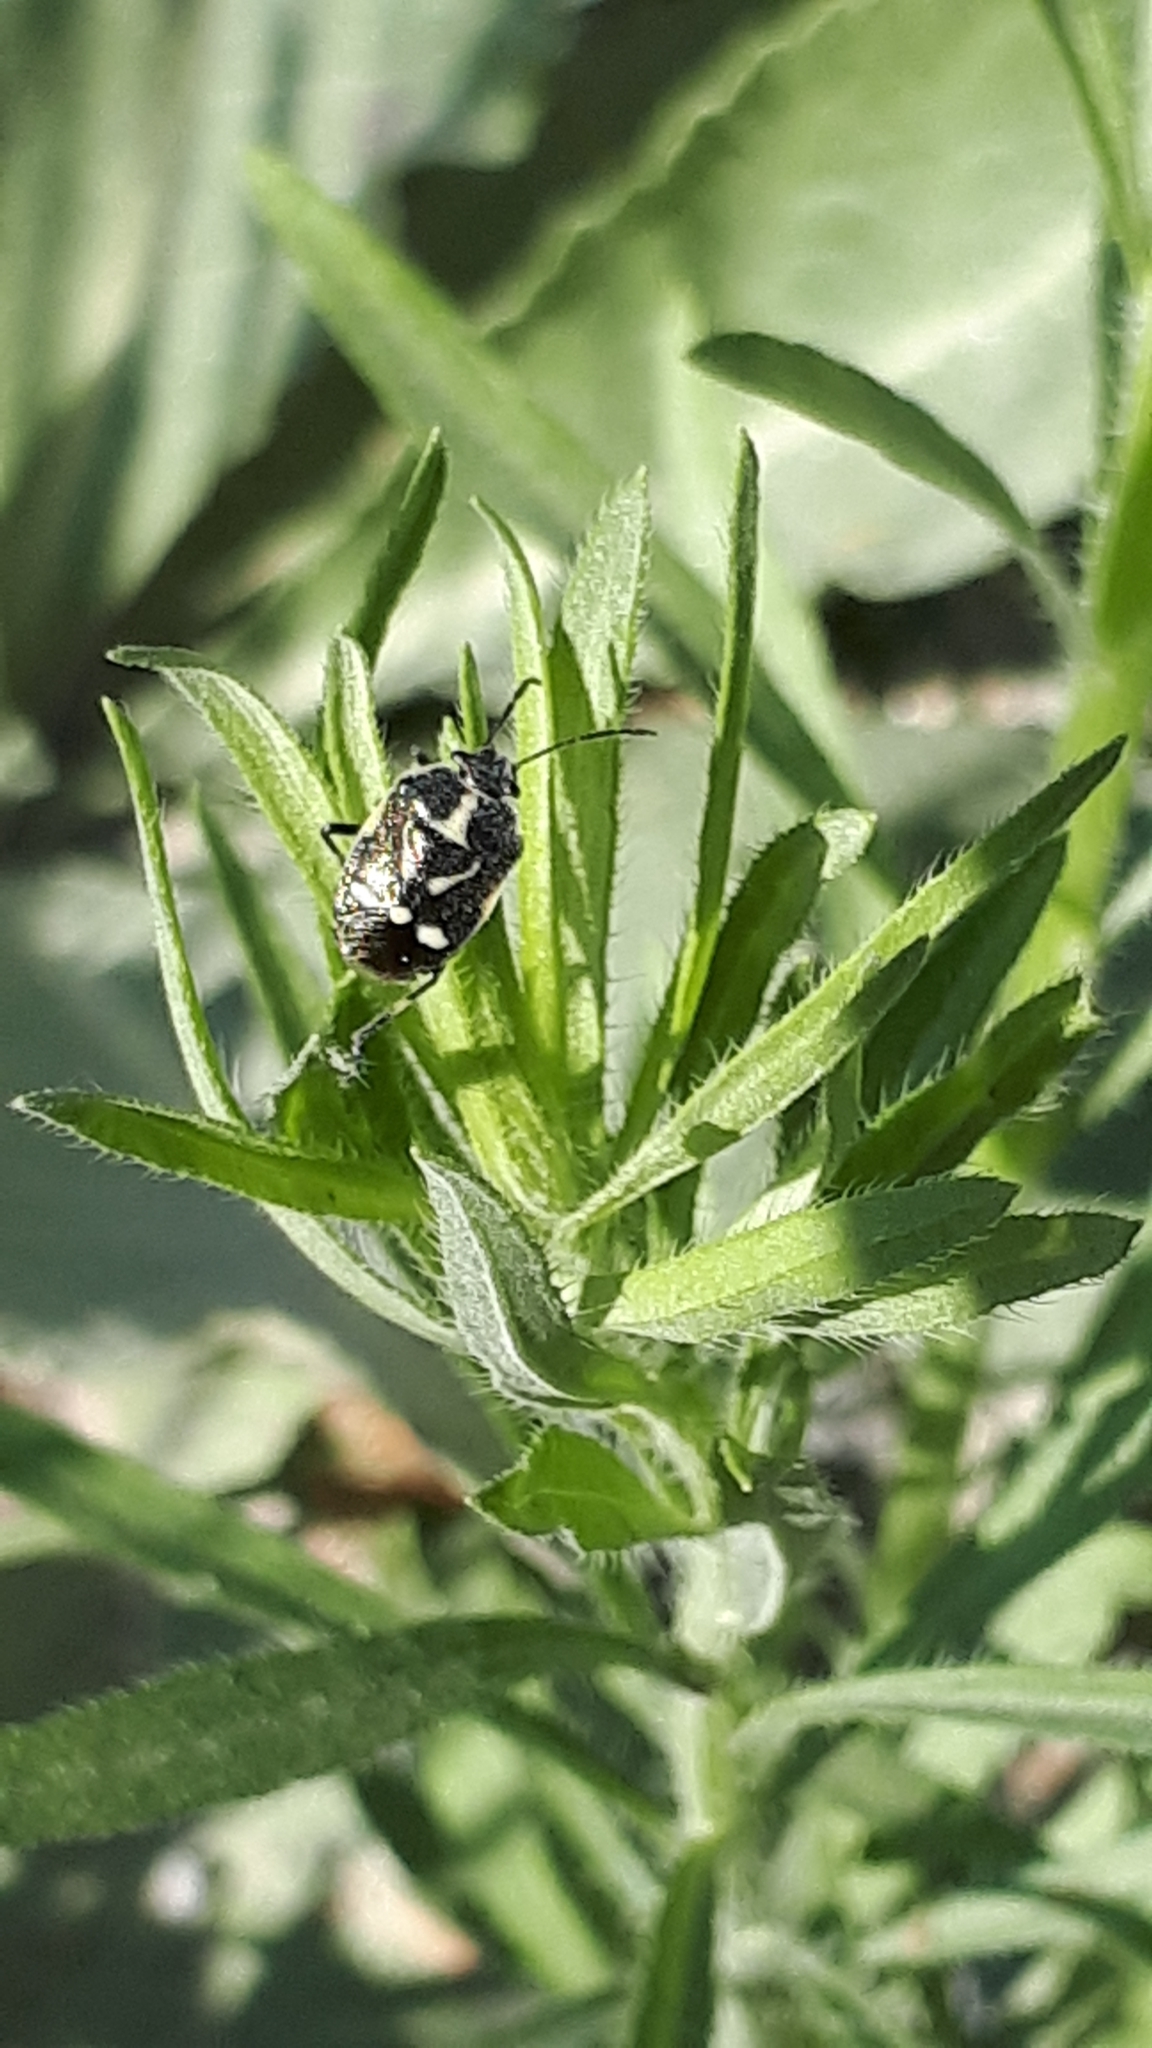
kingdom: Animalia
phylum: Arthropoda
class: Insecta
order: Hemiptera
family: Pentatomidae
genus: Eurydema
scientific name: Eurydema oleracea
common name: Cabbage bug
